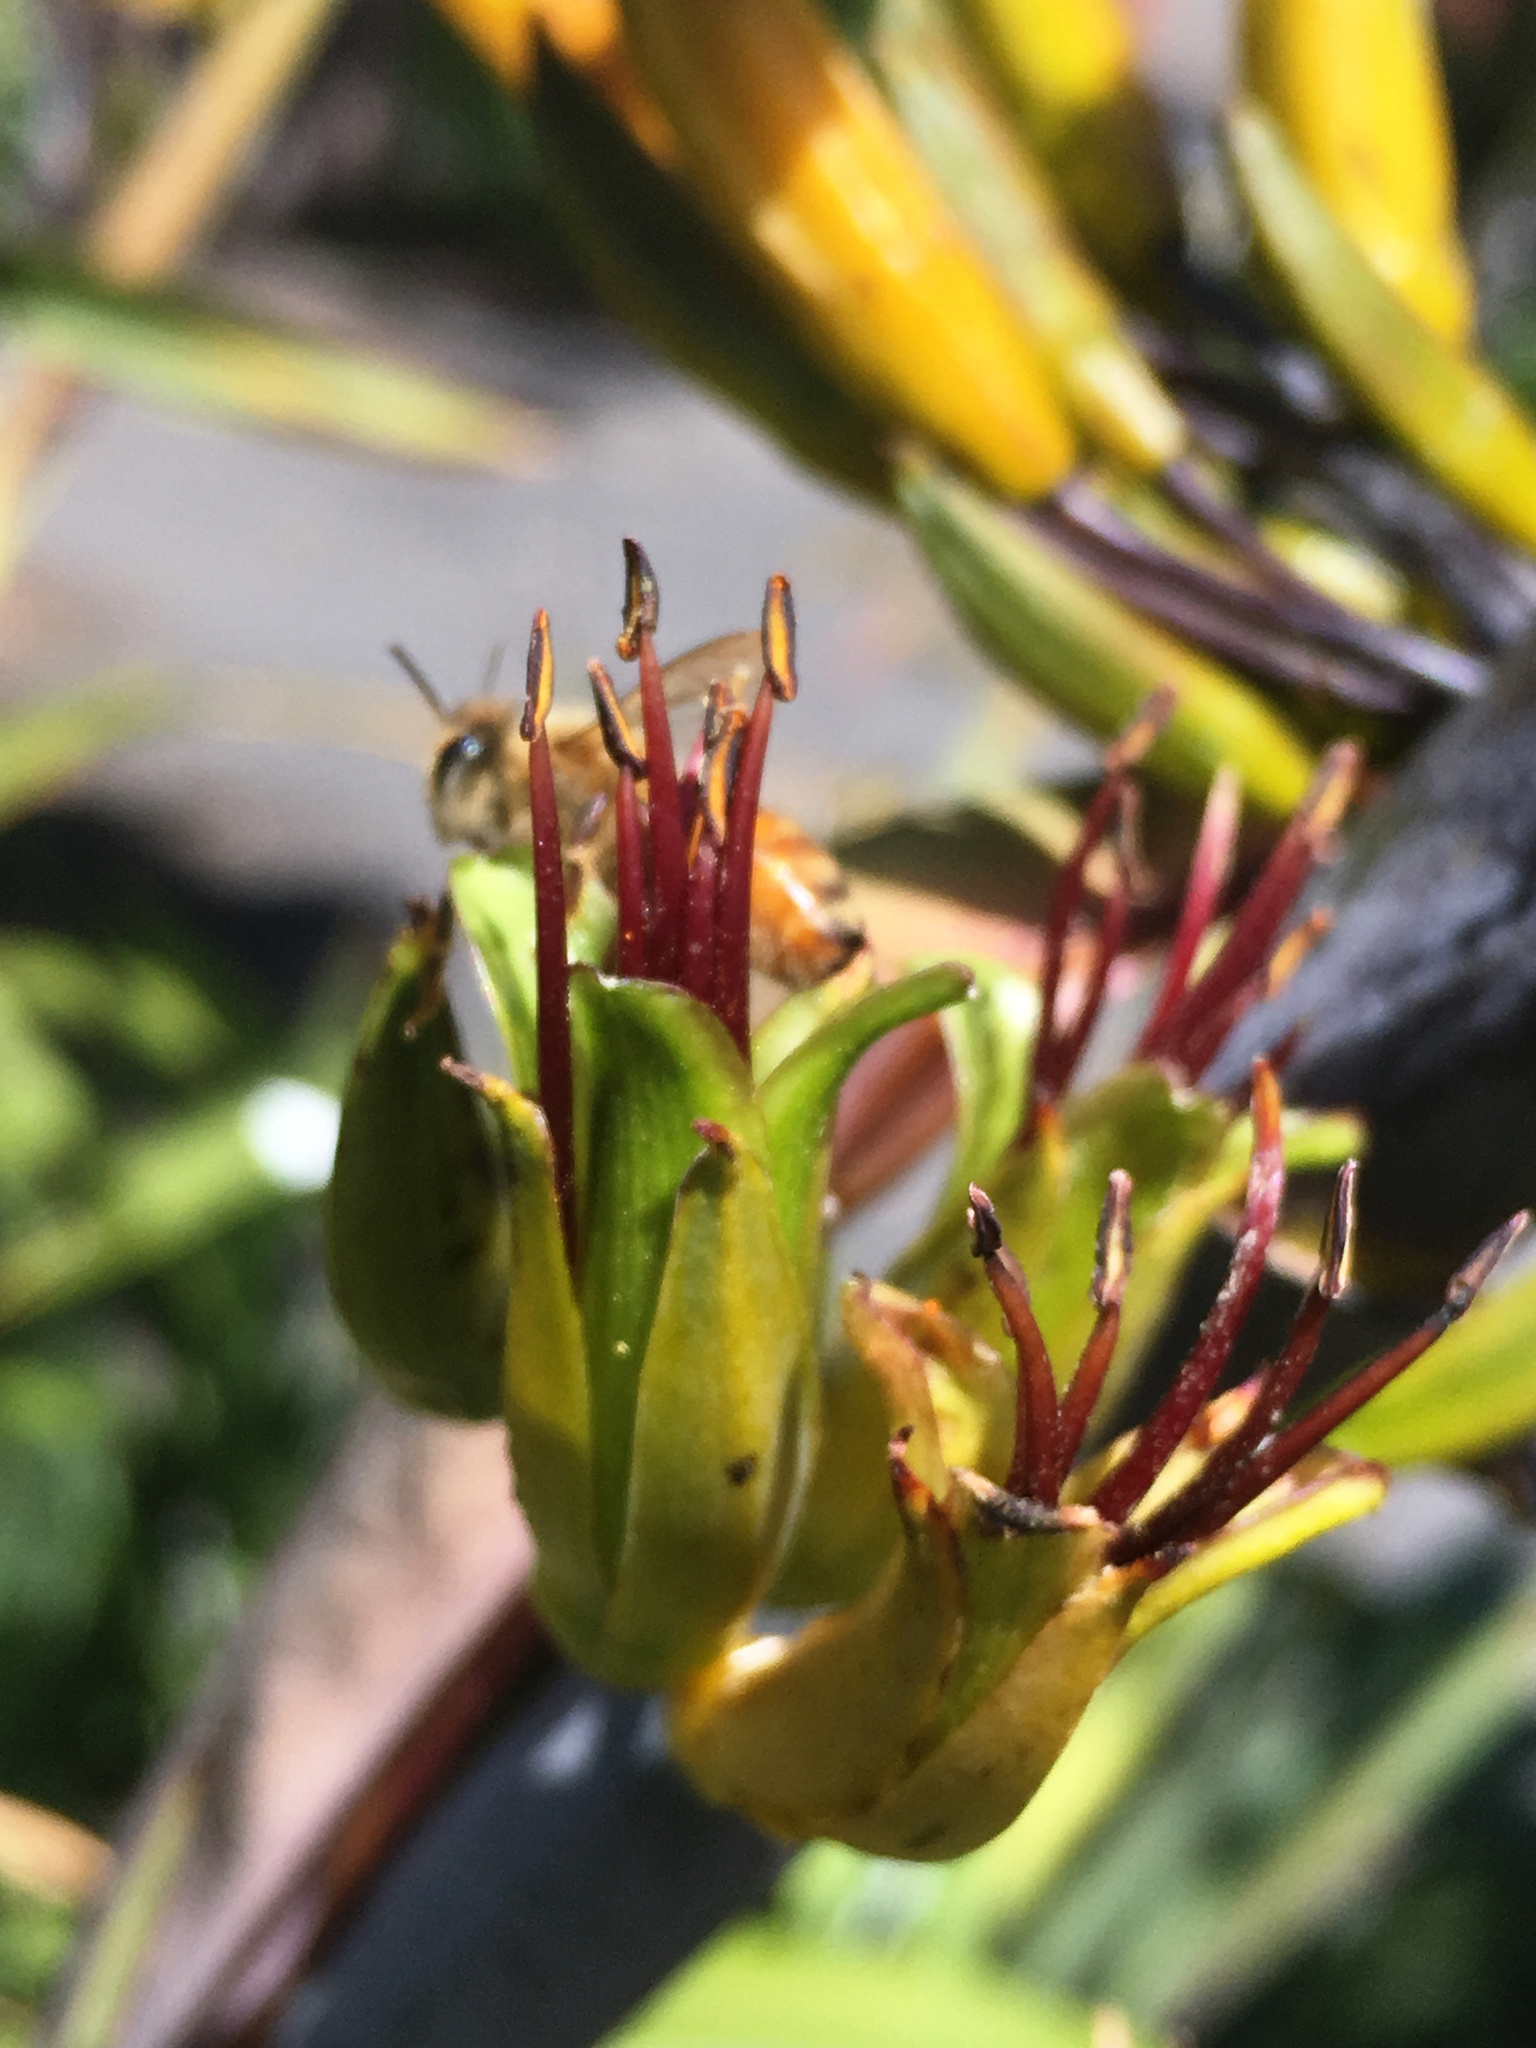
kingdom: Animalia
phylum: Arthropoda
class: Insecta
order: Hymenoptera
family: Apidae
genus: Apis
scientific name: Apis mellifera
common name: Honey bee
